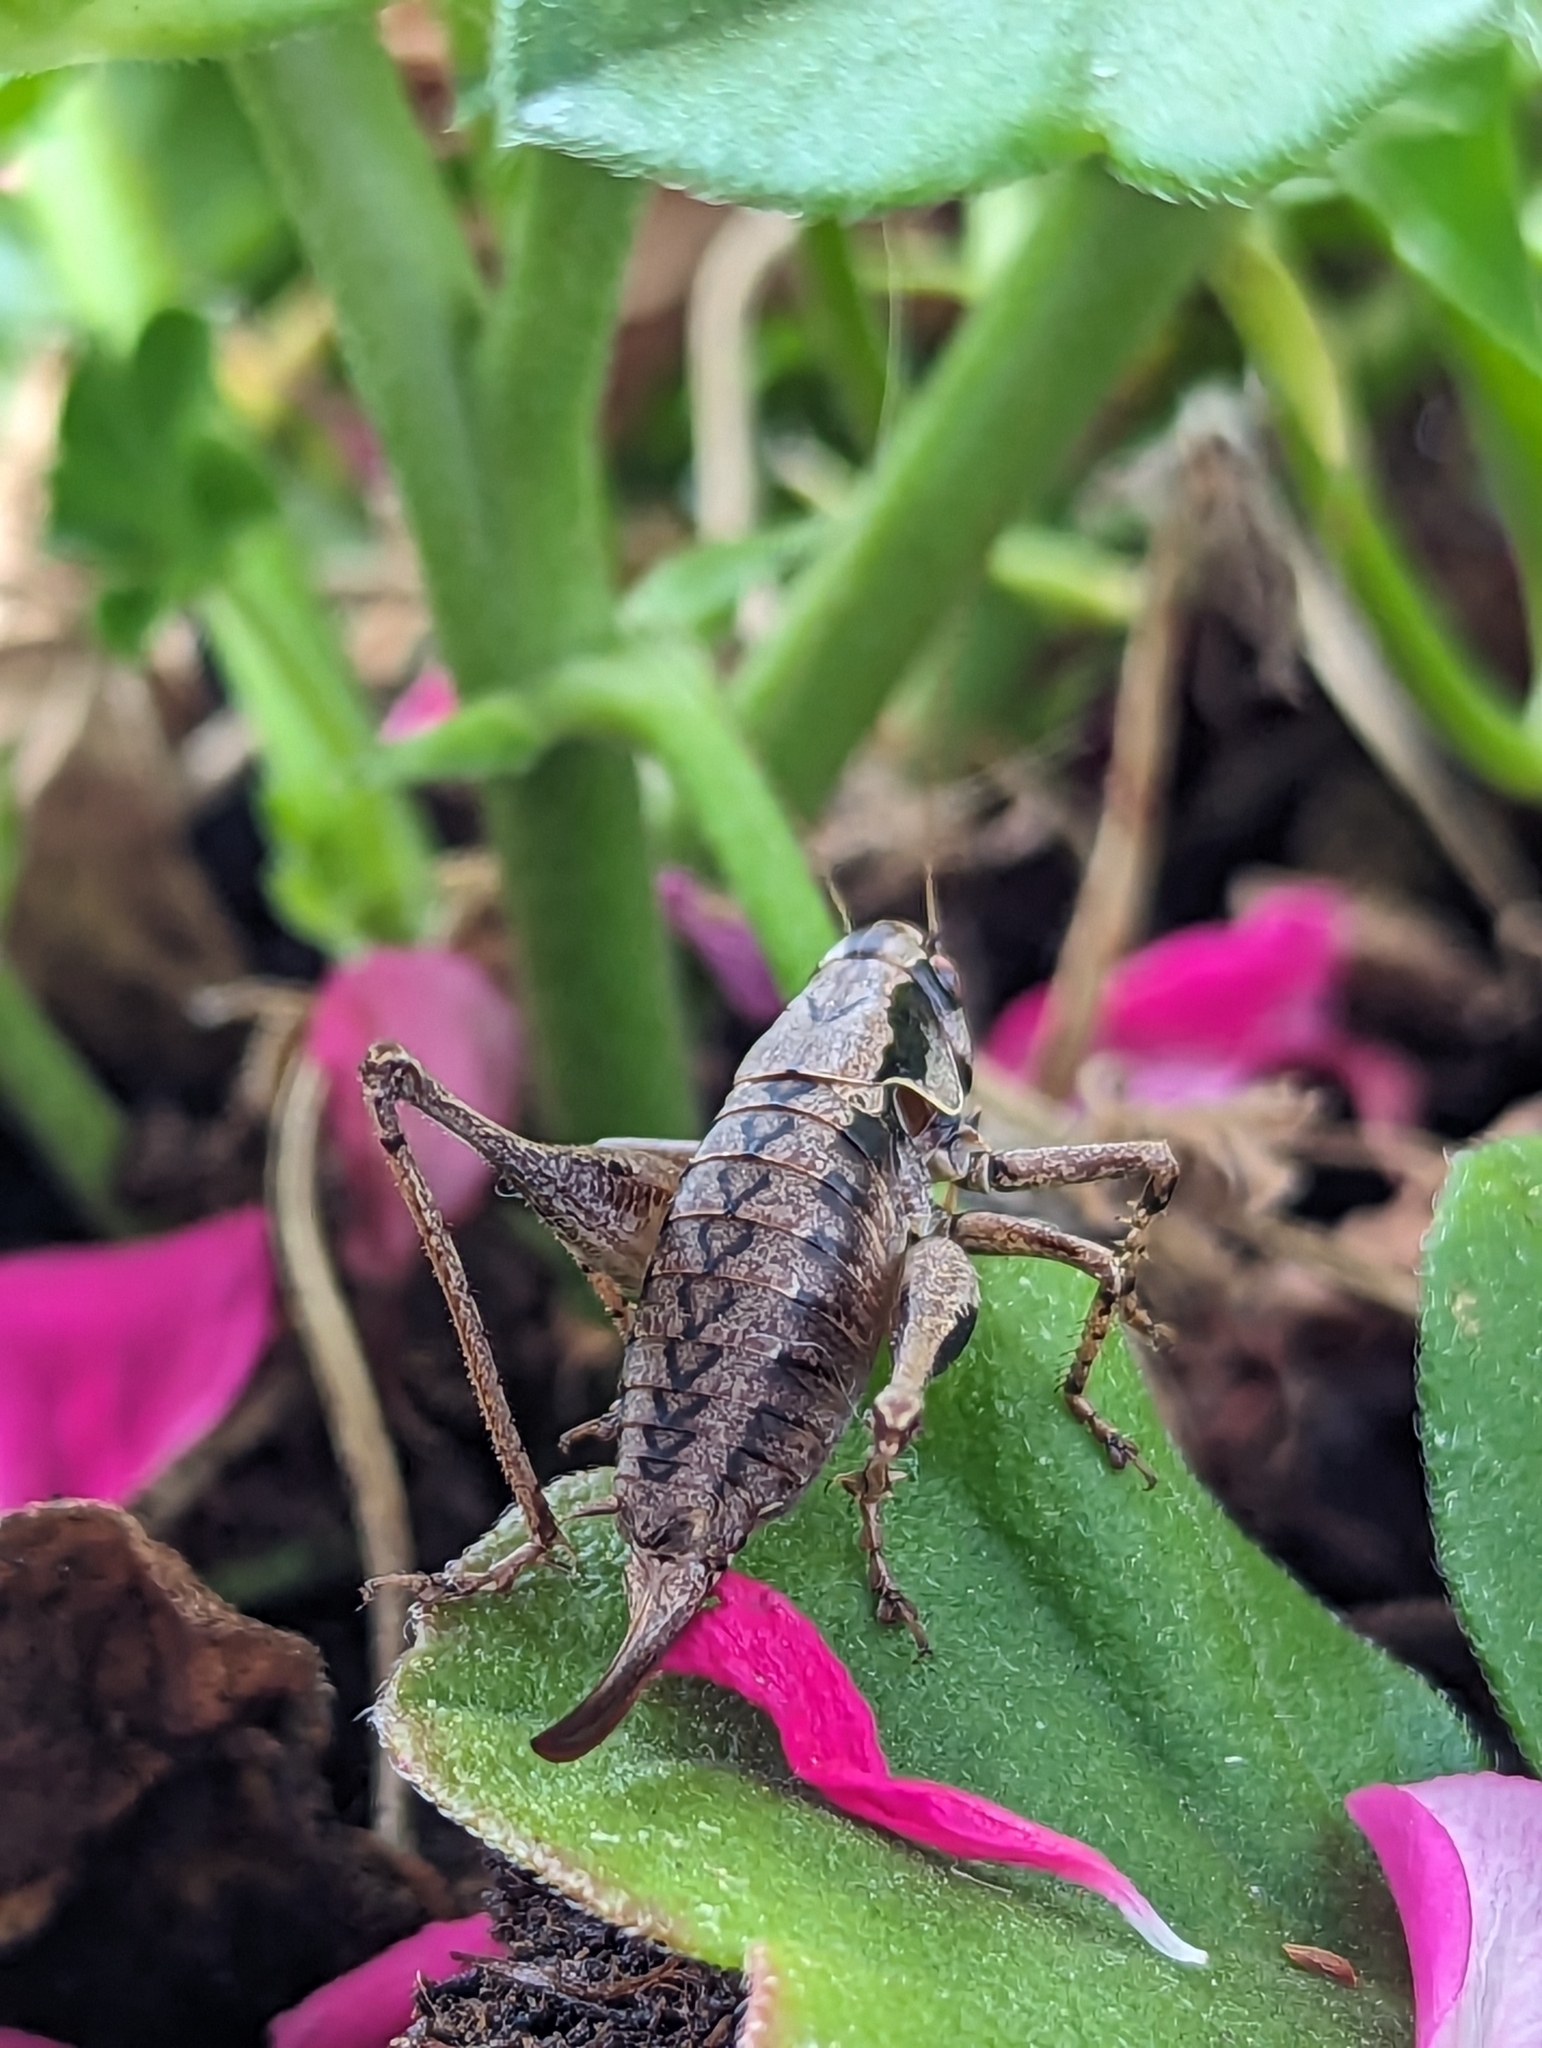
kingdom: Animalia
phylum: Arthropoda
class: Insecta
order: Orthoptera
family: Tettigoniidae
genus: Pholidoptera
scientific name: Pholidoptera griseoaptera
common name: Dark bush-cricket
